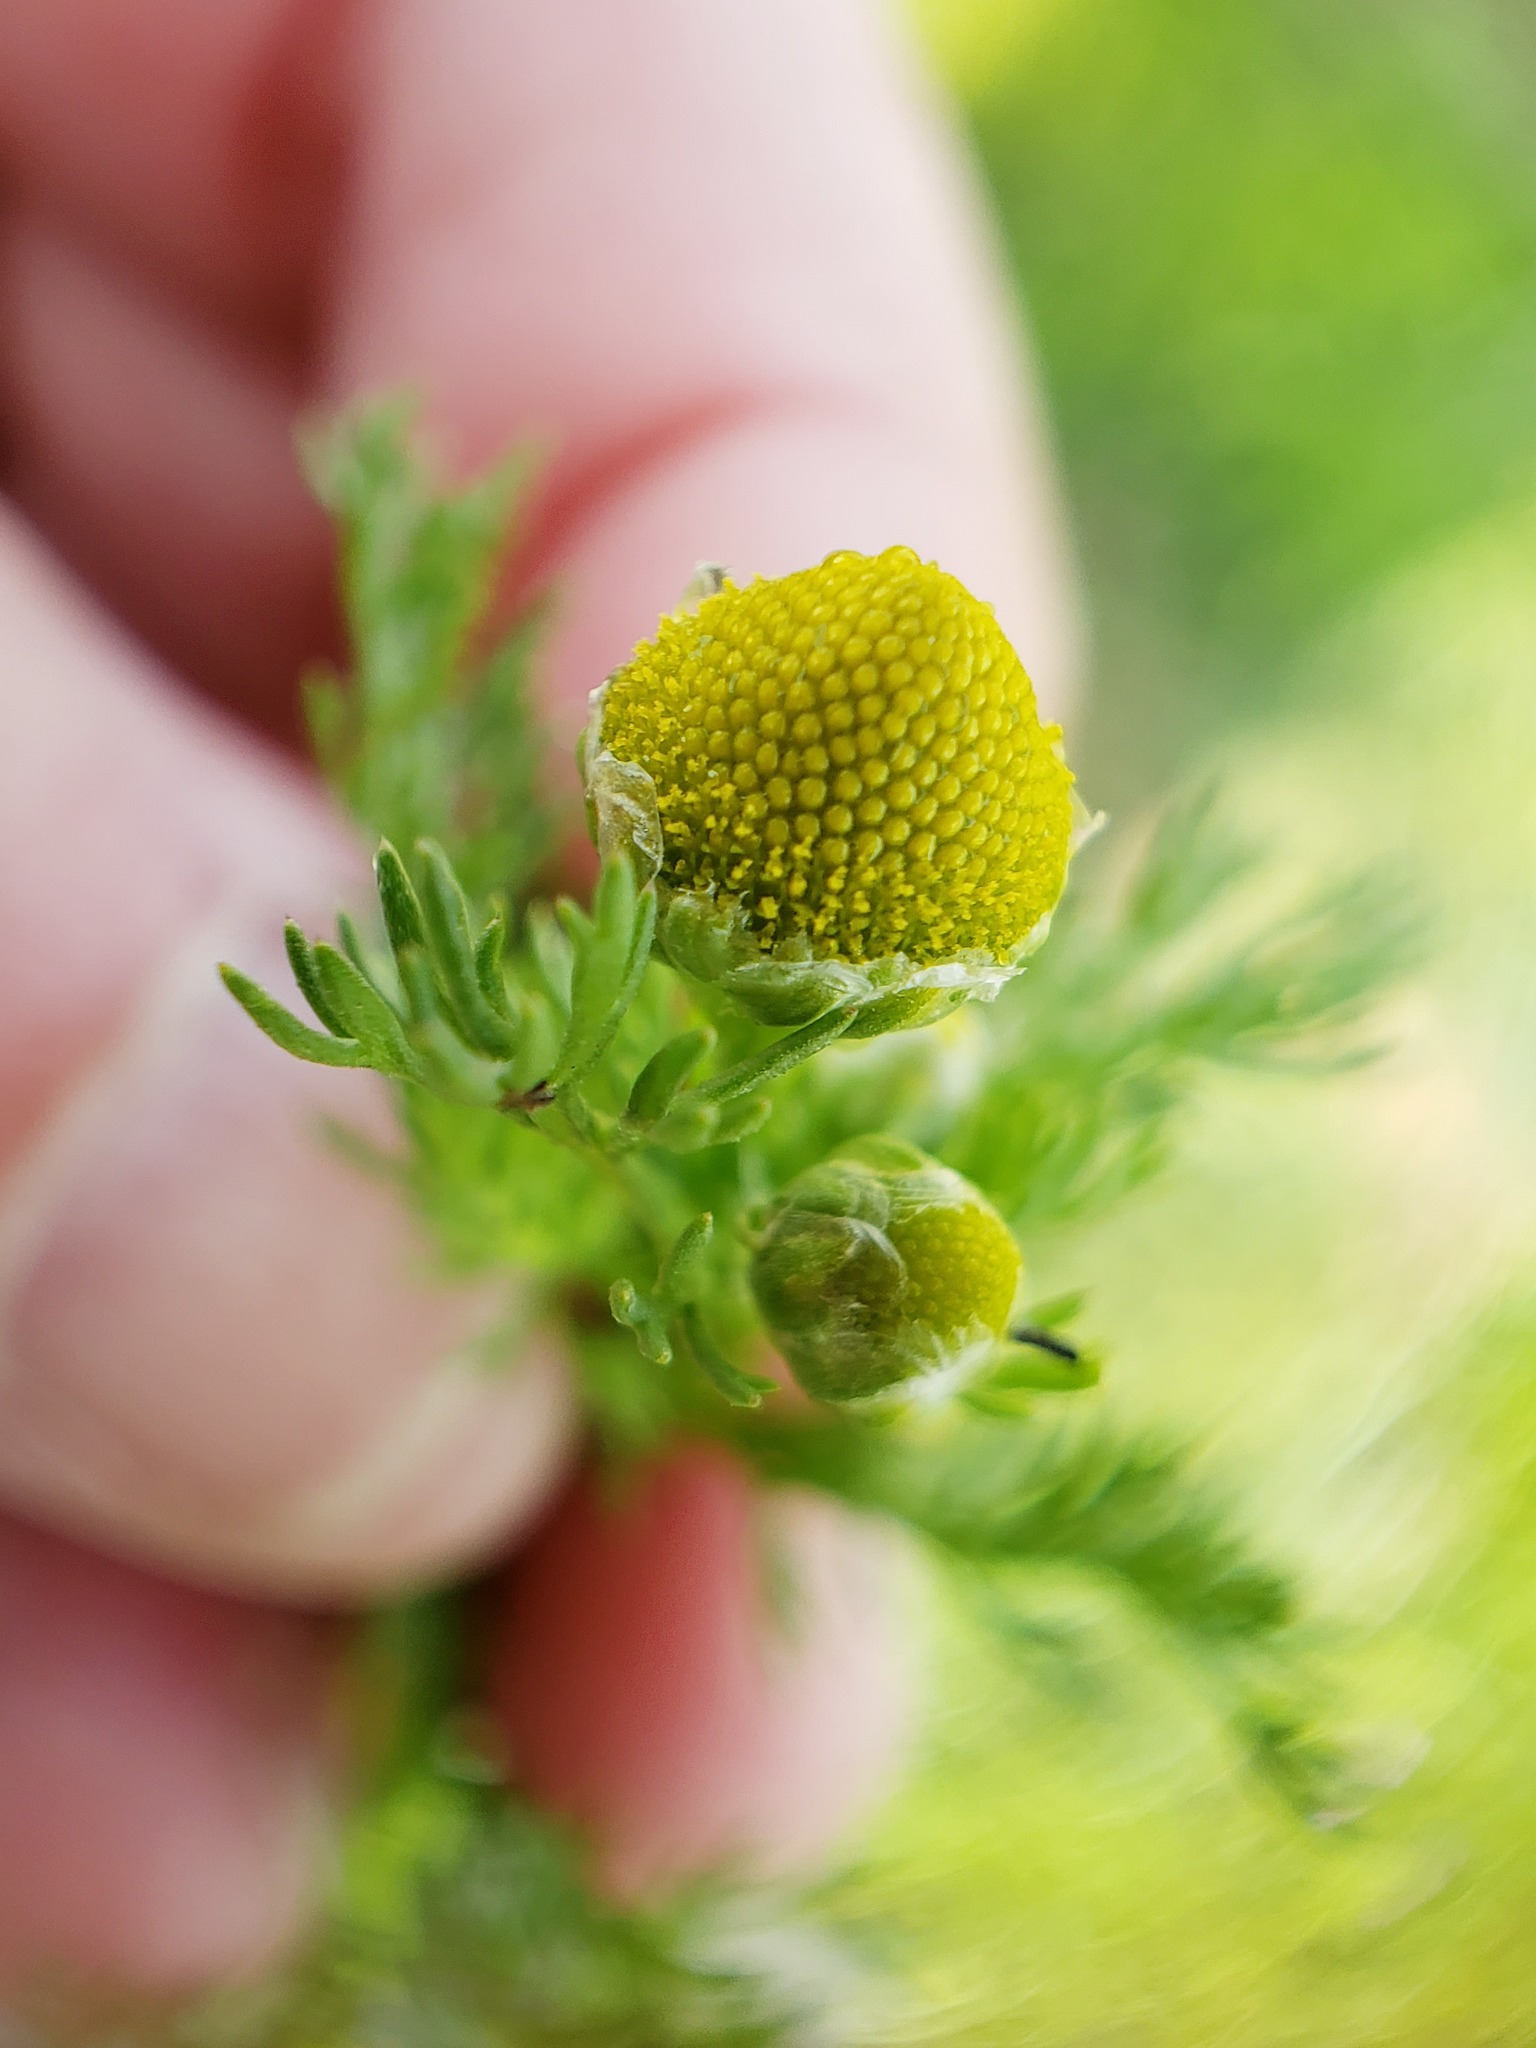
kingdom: Plantae
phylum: Tracheophyta
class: Magnoliopsida
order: Asterales
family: Asteraceae
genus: Matricaria
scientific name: Matricaria discoidea
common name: Disc mayweed
